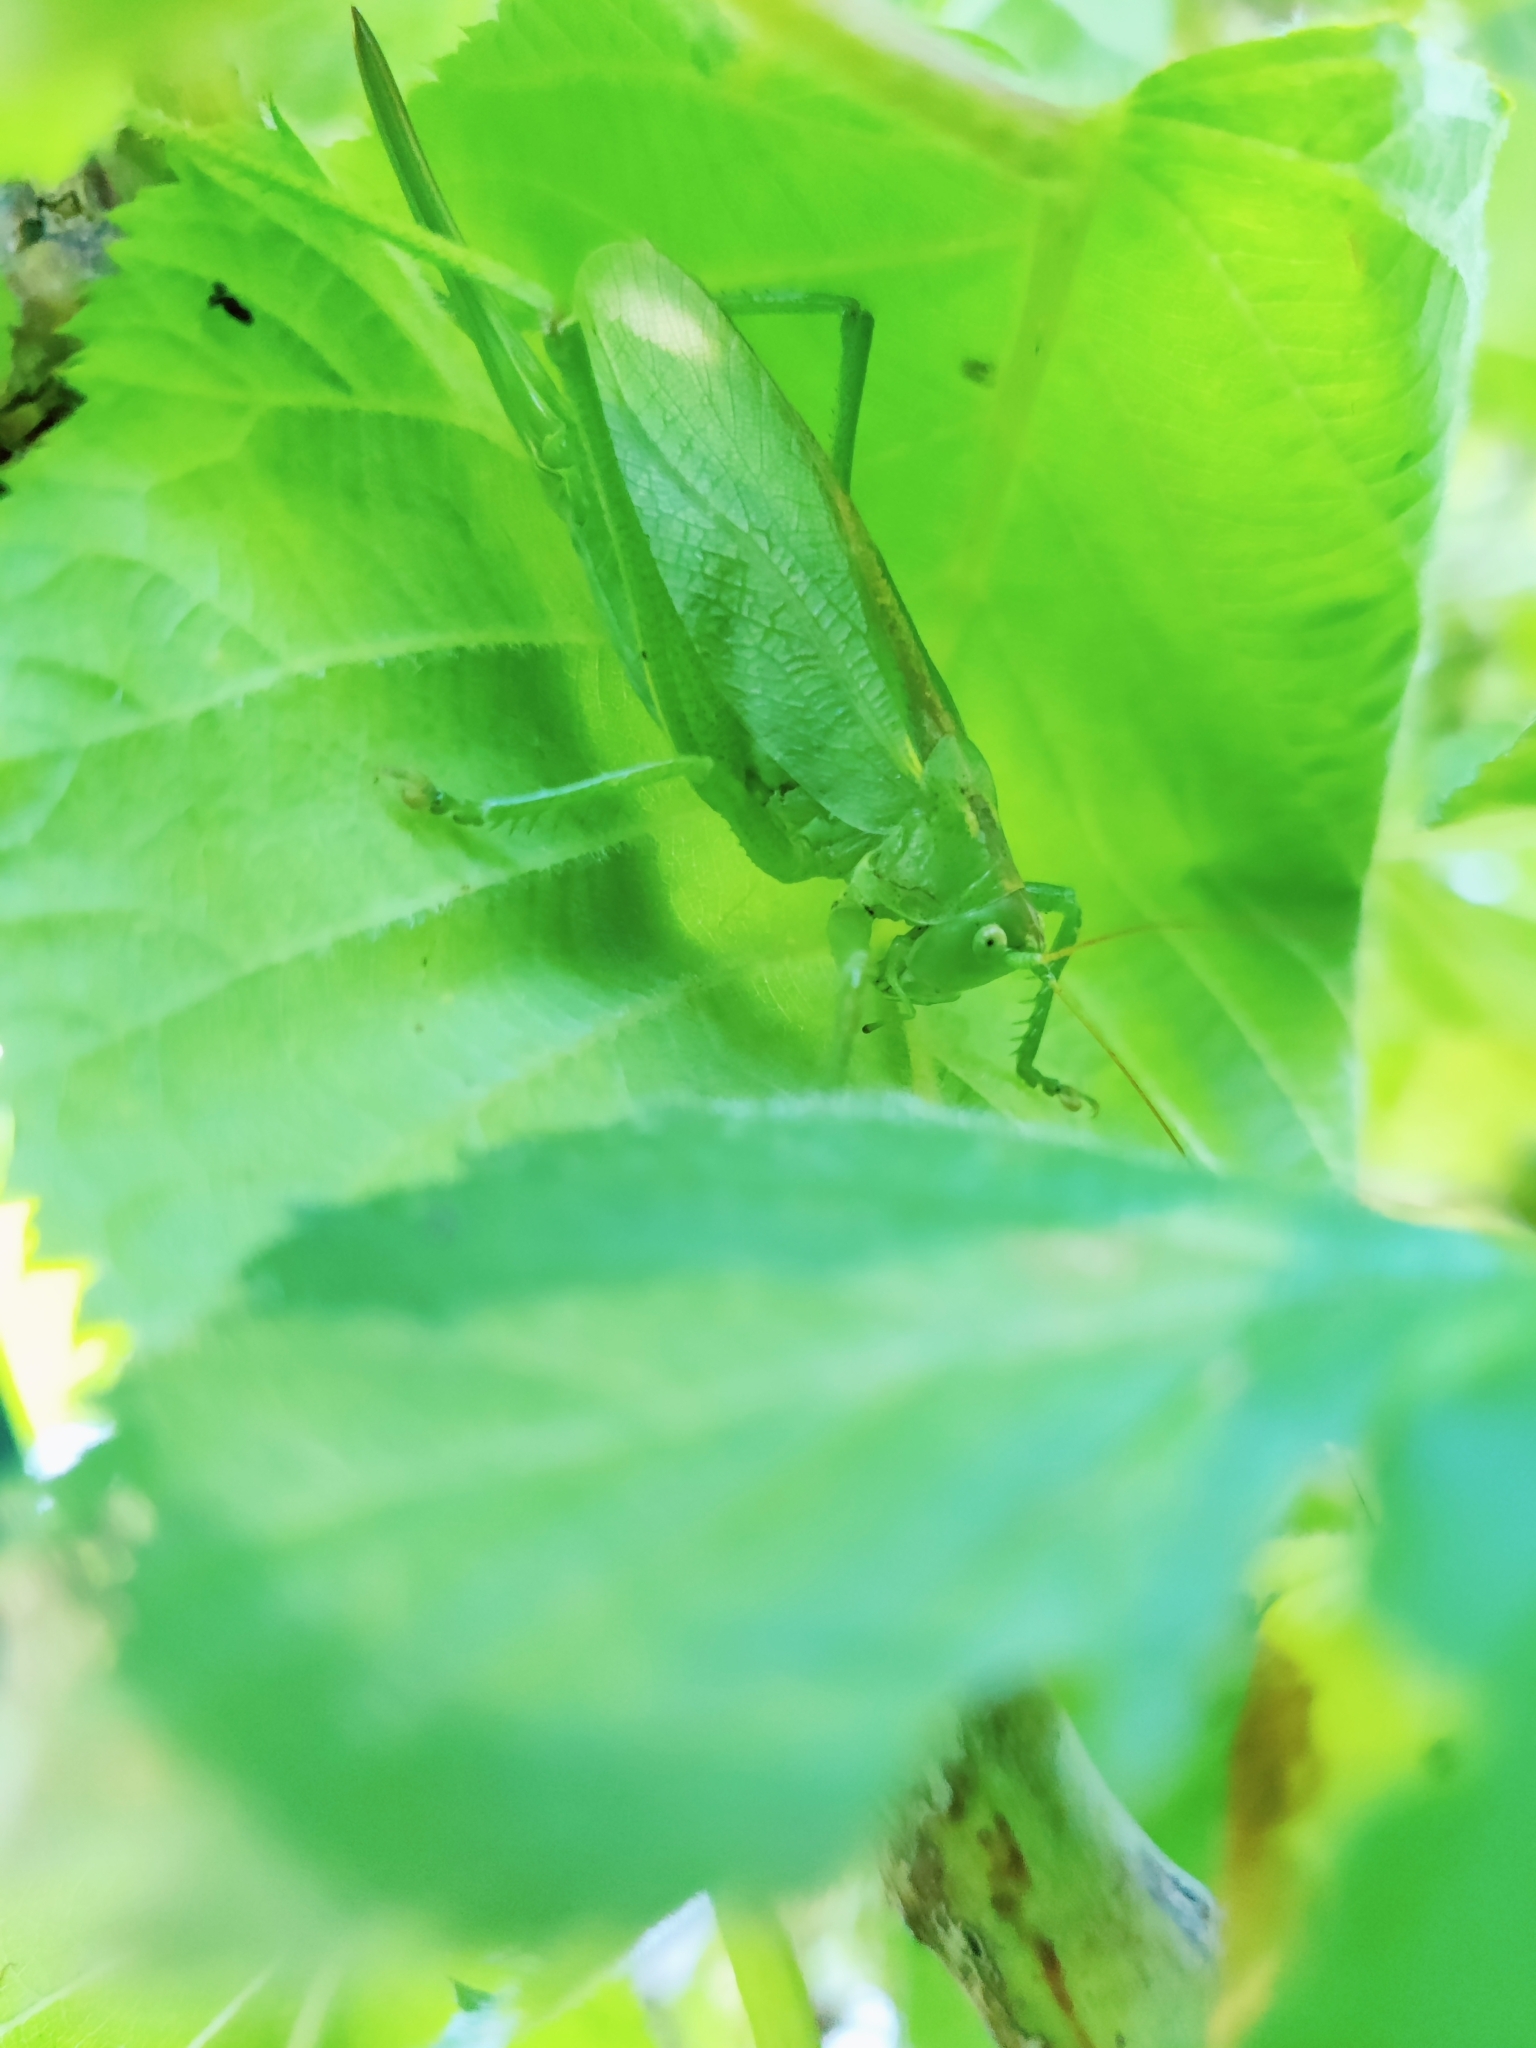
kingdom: Animalia
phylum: Arthropoda
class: Insecta
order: Orthoptera
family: Tettigoniidae
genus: Tettigonia
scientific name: Tettigonia cantans
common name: Upland green bush-cricket
